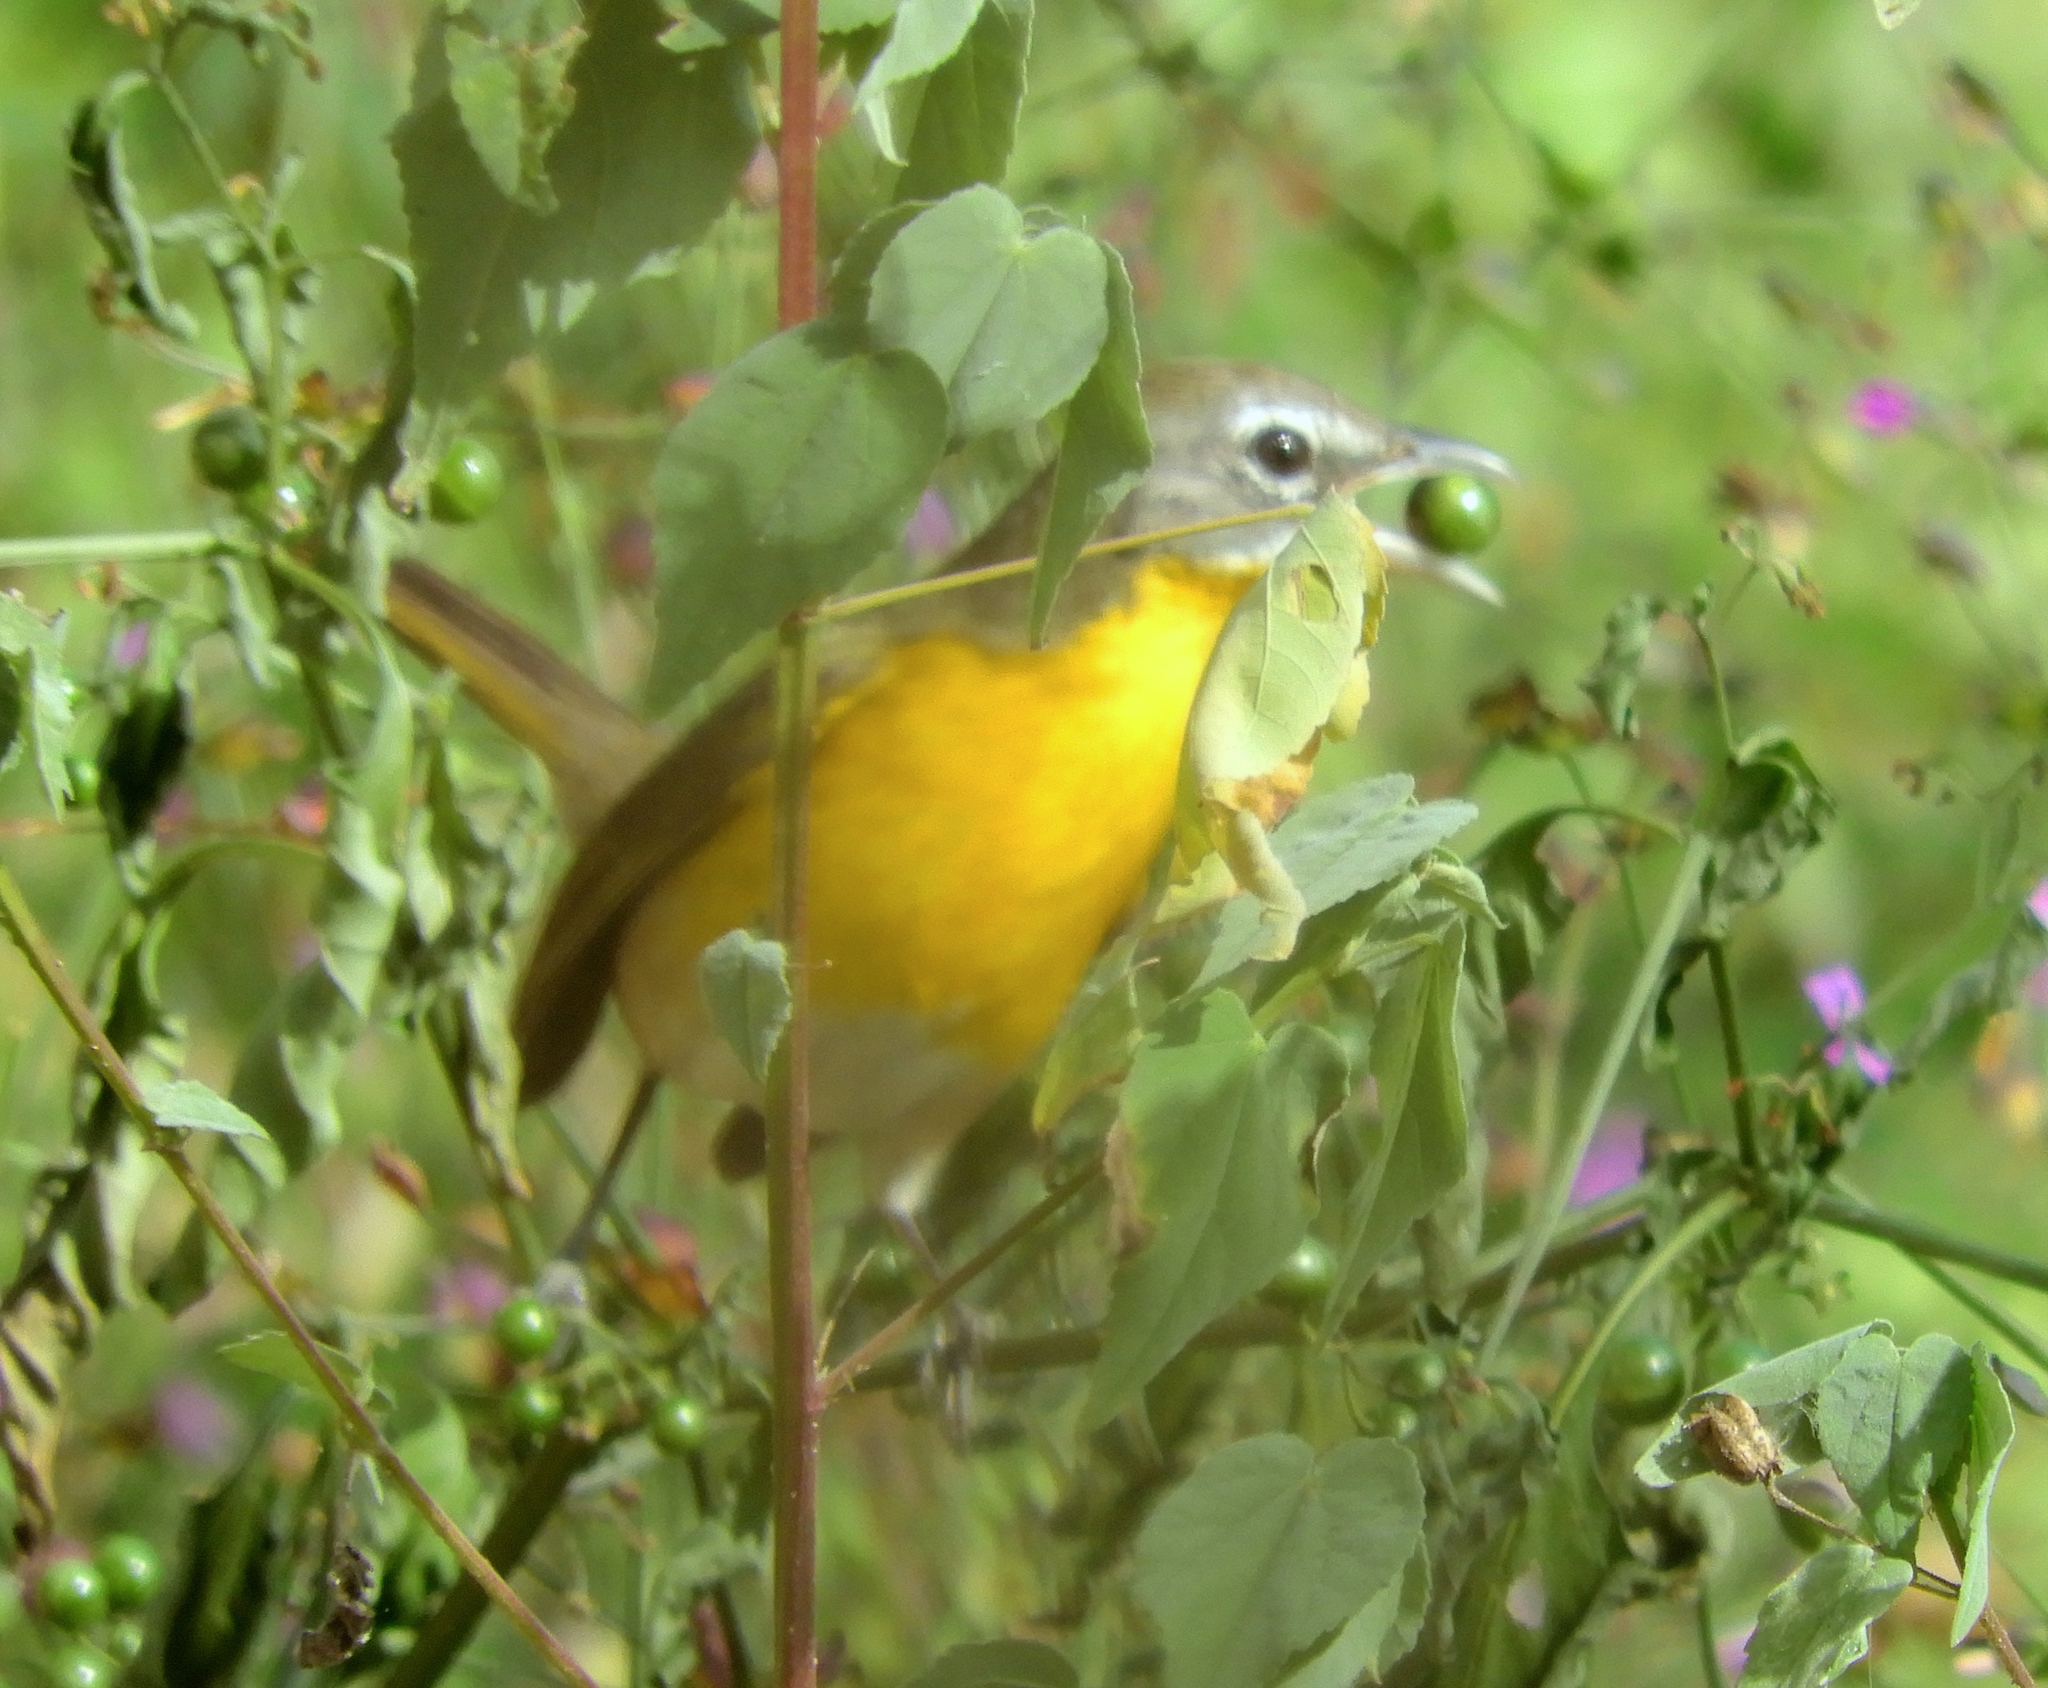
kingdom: Animalia
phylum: Chordata
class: Aves
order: Passeriformes
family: Parulidae
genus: Icteria
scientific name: Icteria virens
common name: Yellow-breasted chat
